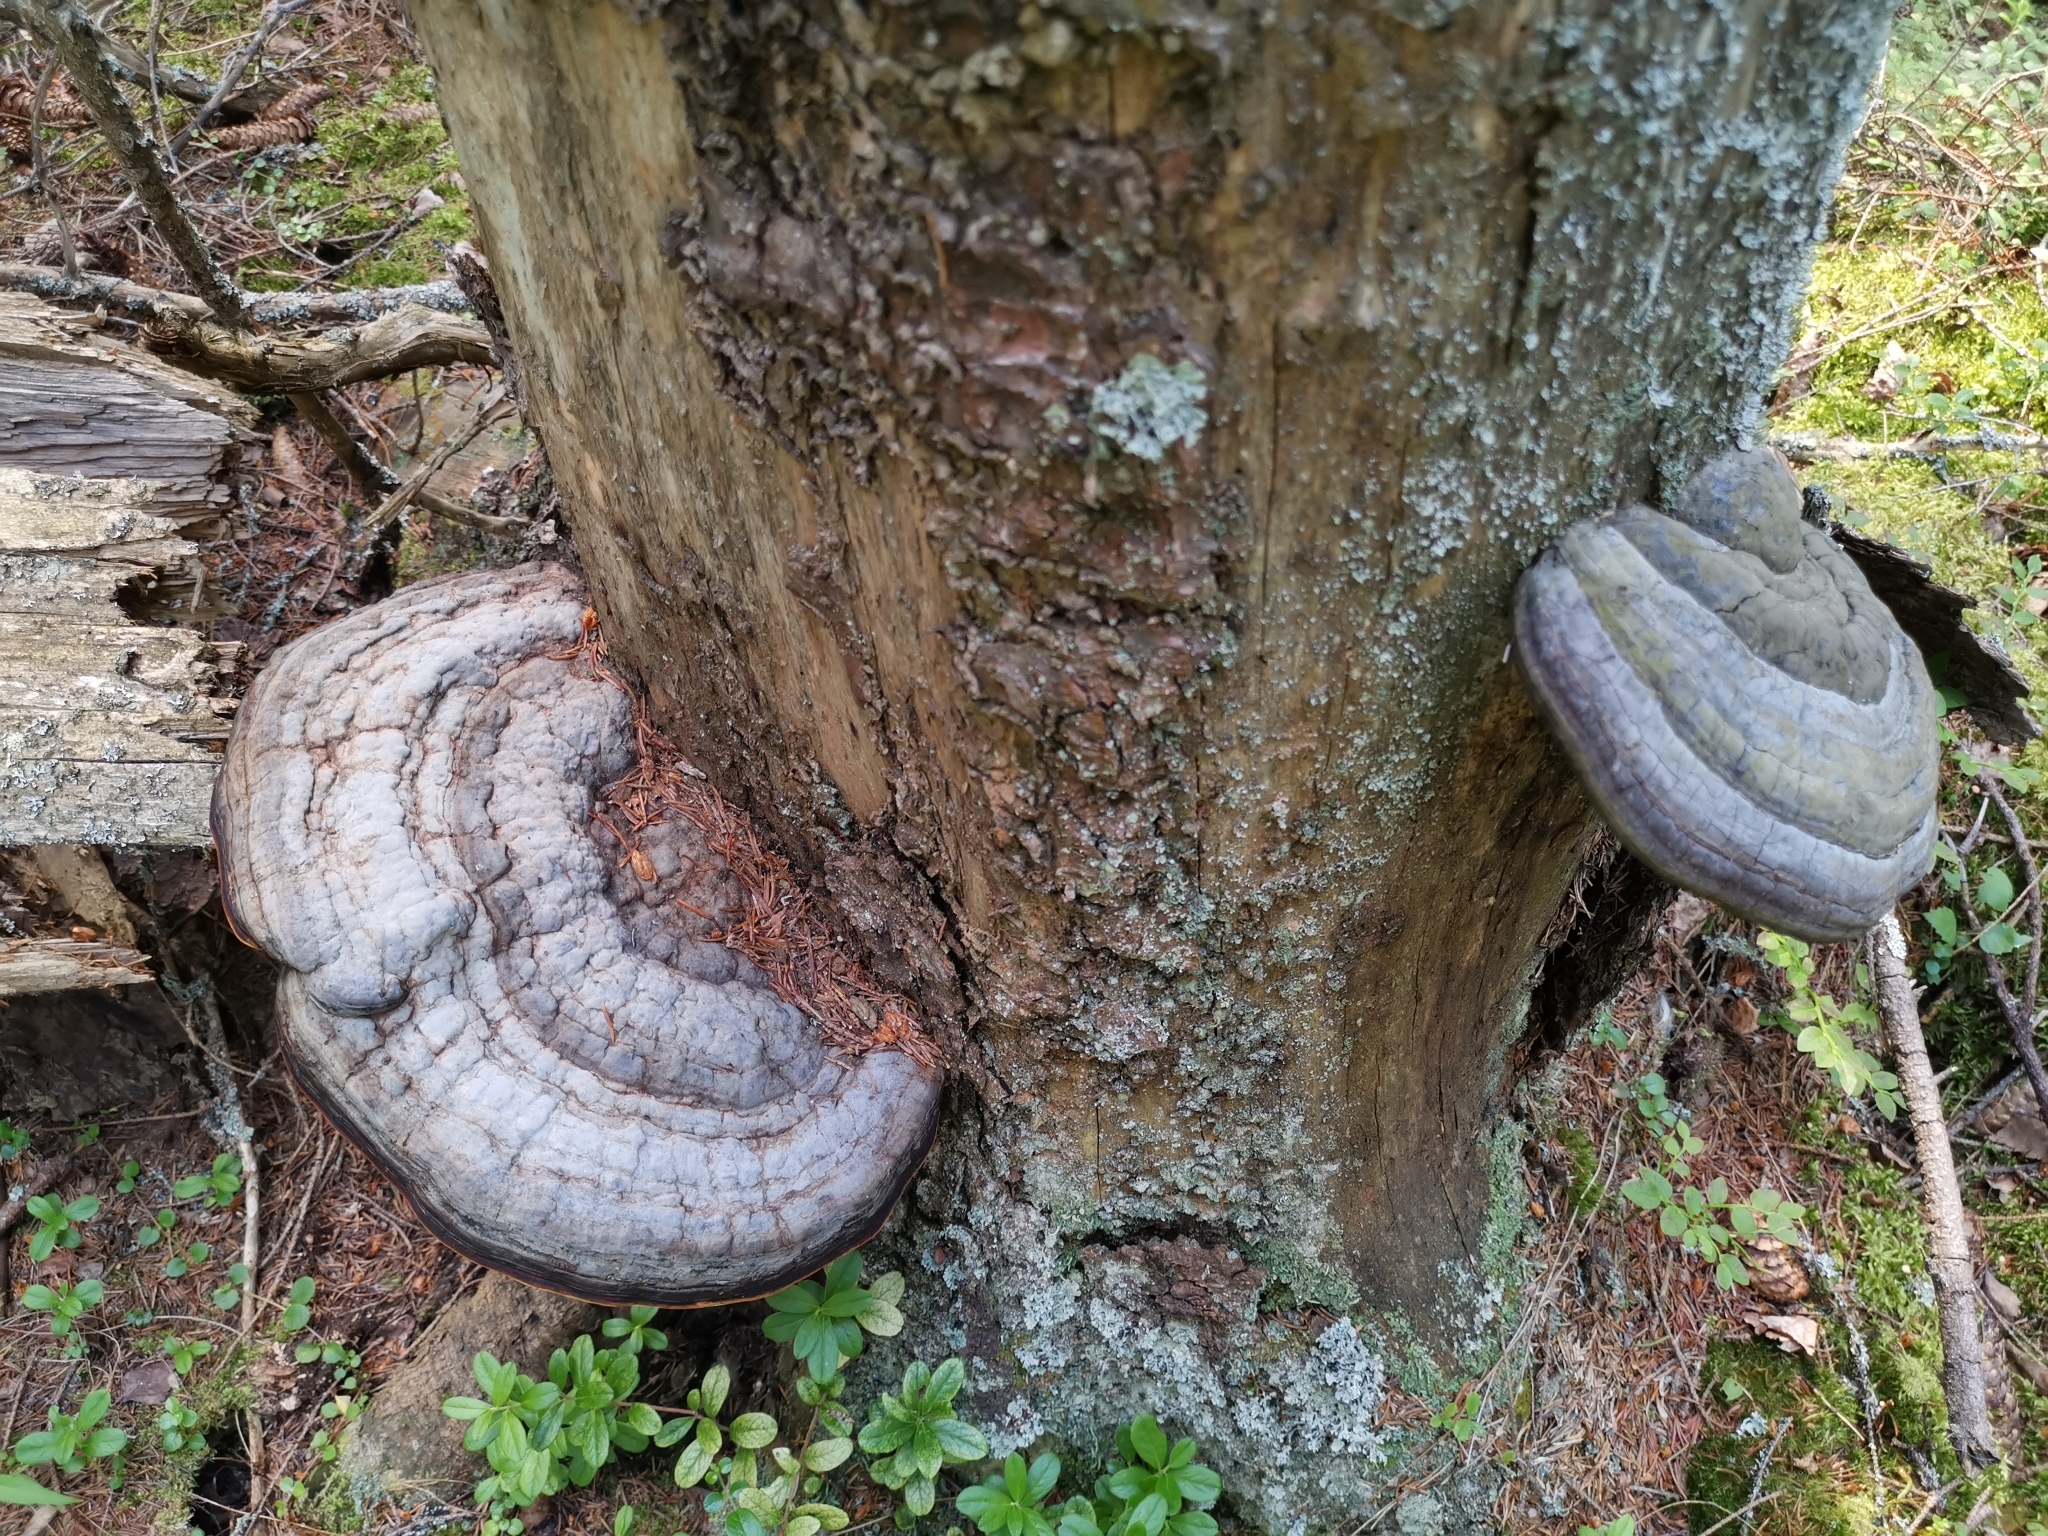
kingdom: Fungi
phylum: Basidiomycota
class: Agaricomycetes
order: Polyporales
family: Fomitopsidaceae
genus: Fomitopsis
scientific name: Fomitopsis pinicola
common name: Red-belted bracket
